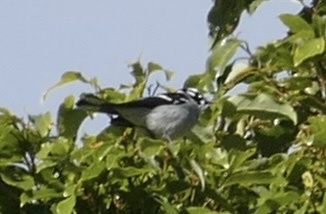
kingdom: Animalia
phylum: Chordata
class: Aves
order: Passeriformes
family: Monarchidae
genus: Carterornis
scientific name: Carterornis leucotis
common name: White-eared monarch
